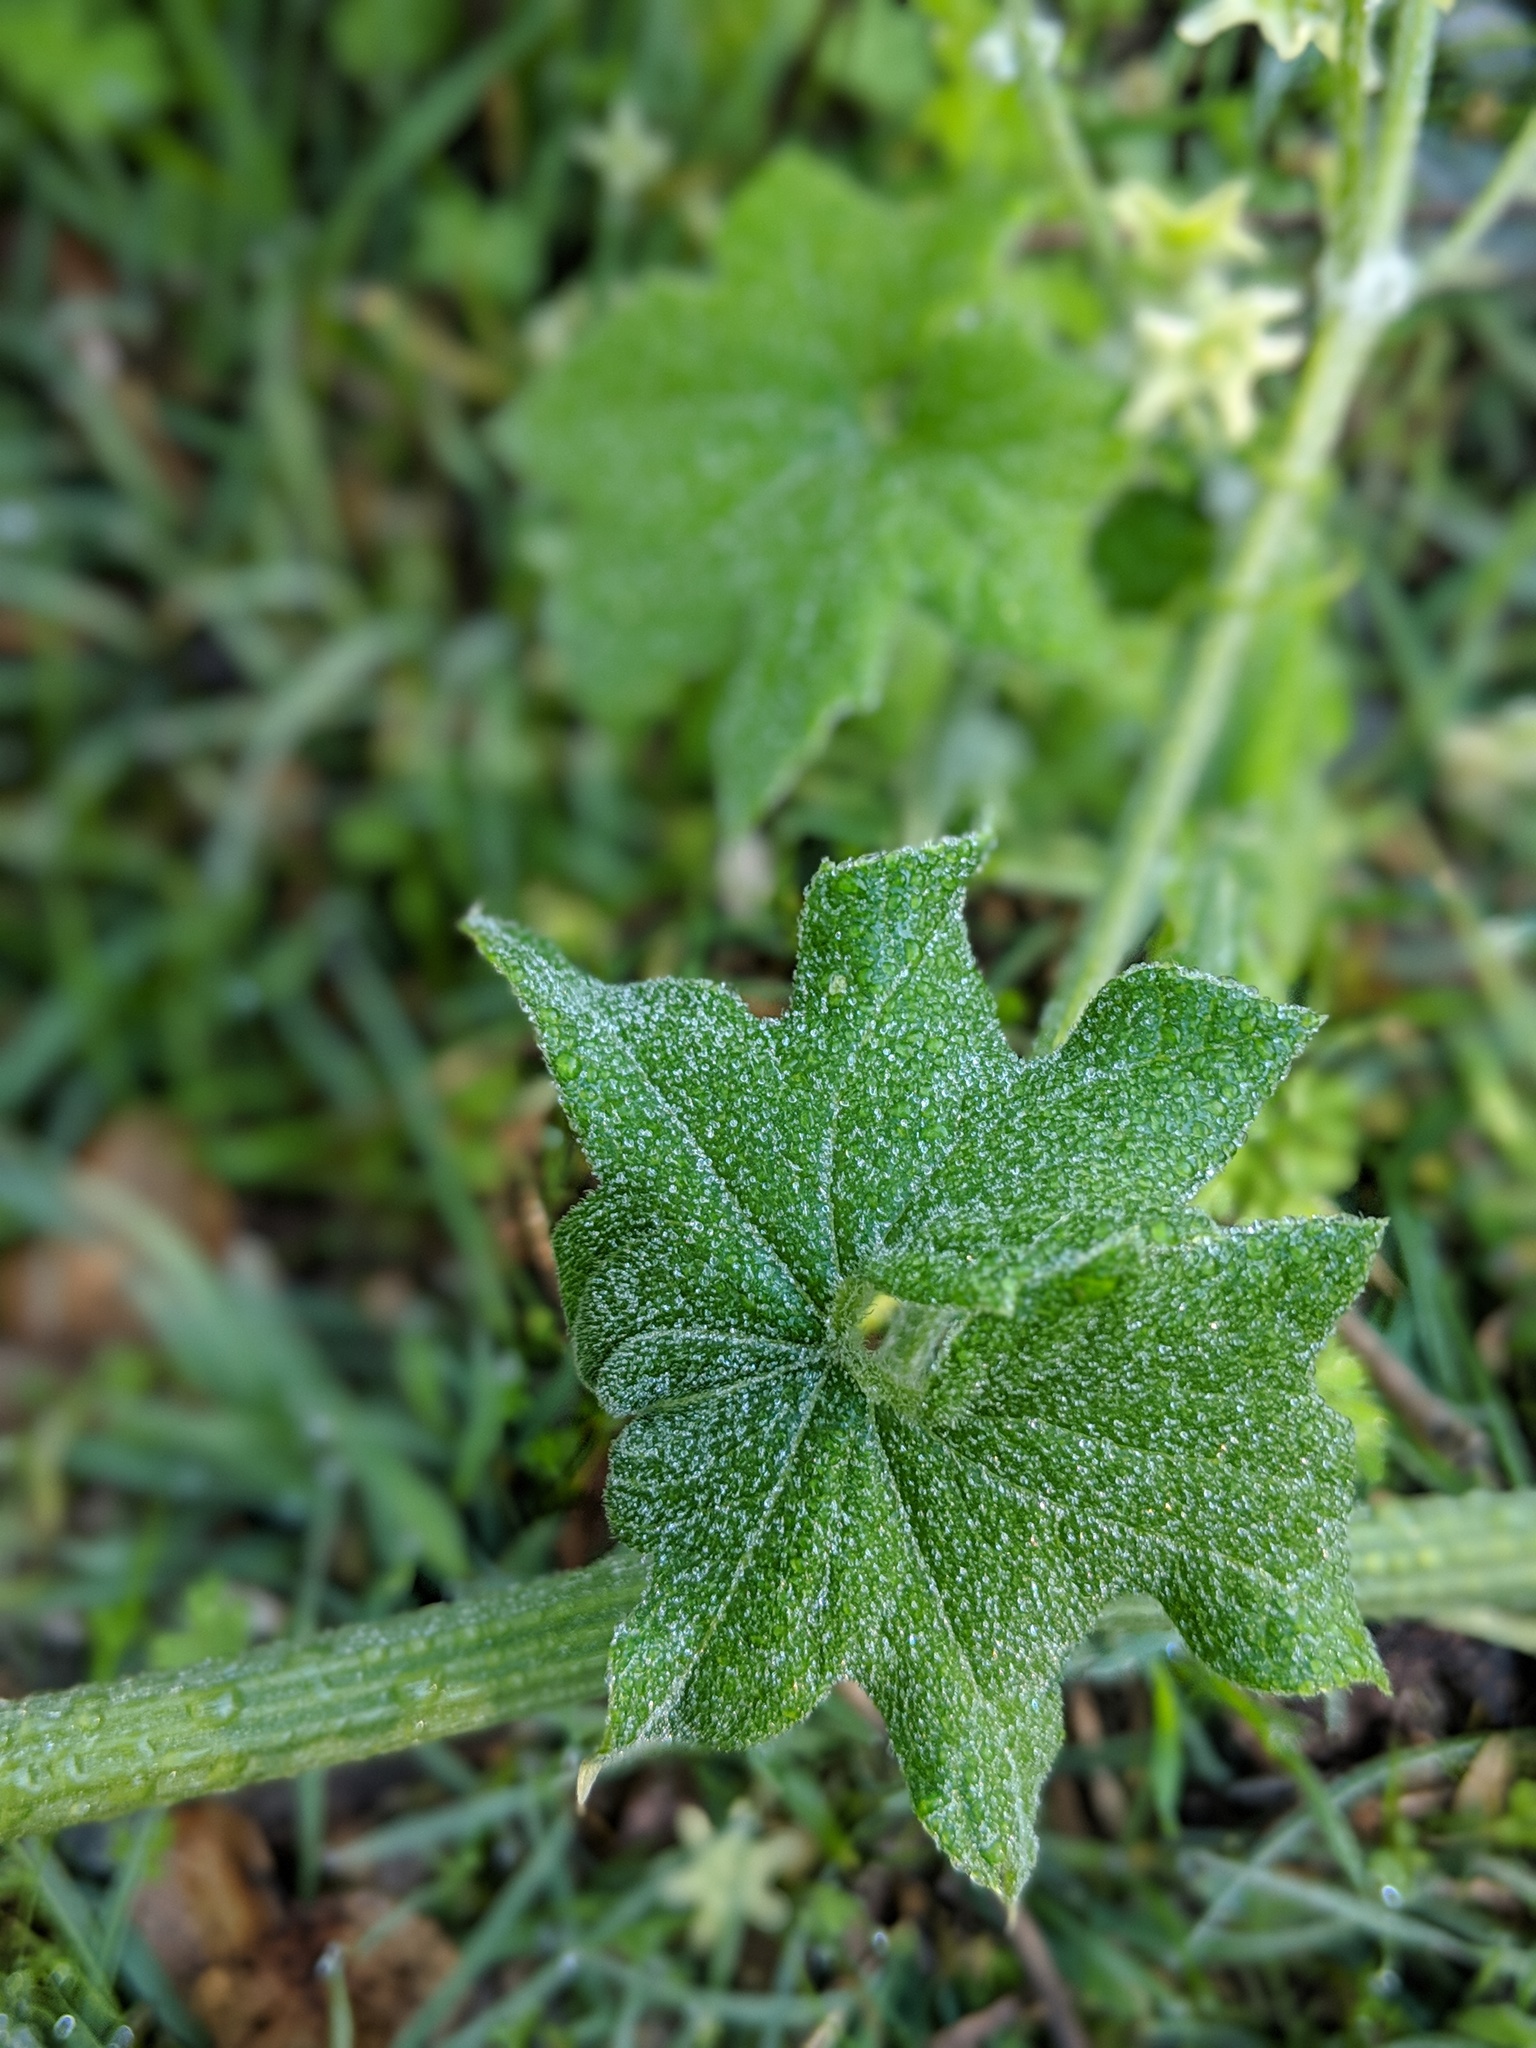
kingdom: Plantae
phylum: Tracheophyta
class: Magnoliopsida
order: Cucurbitales
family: Cucurbitaceae
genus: Marah
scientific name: Marah fabacea
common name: California manroot
